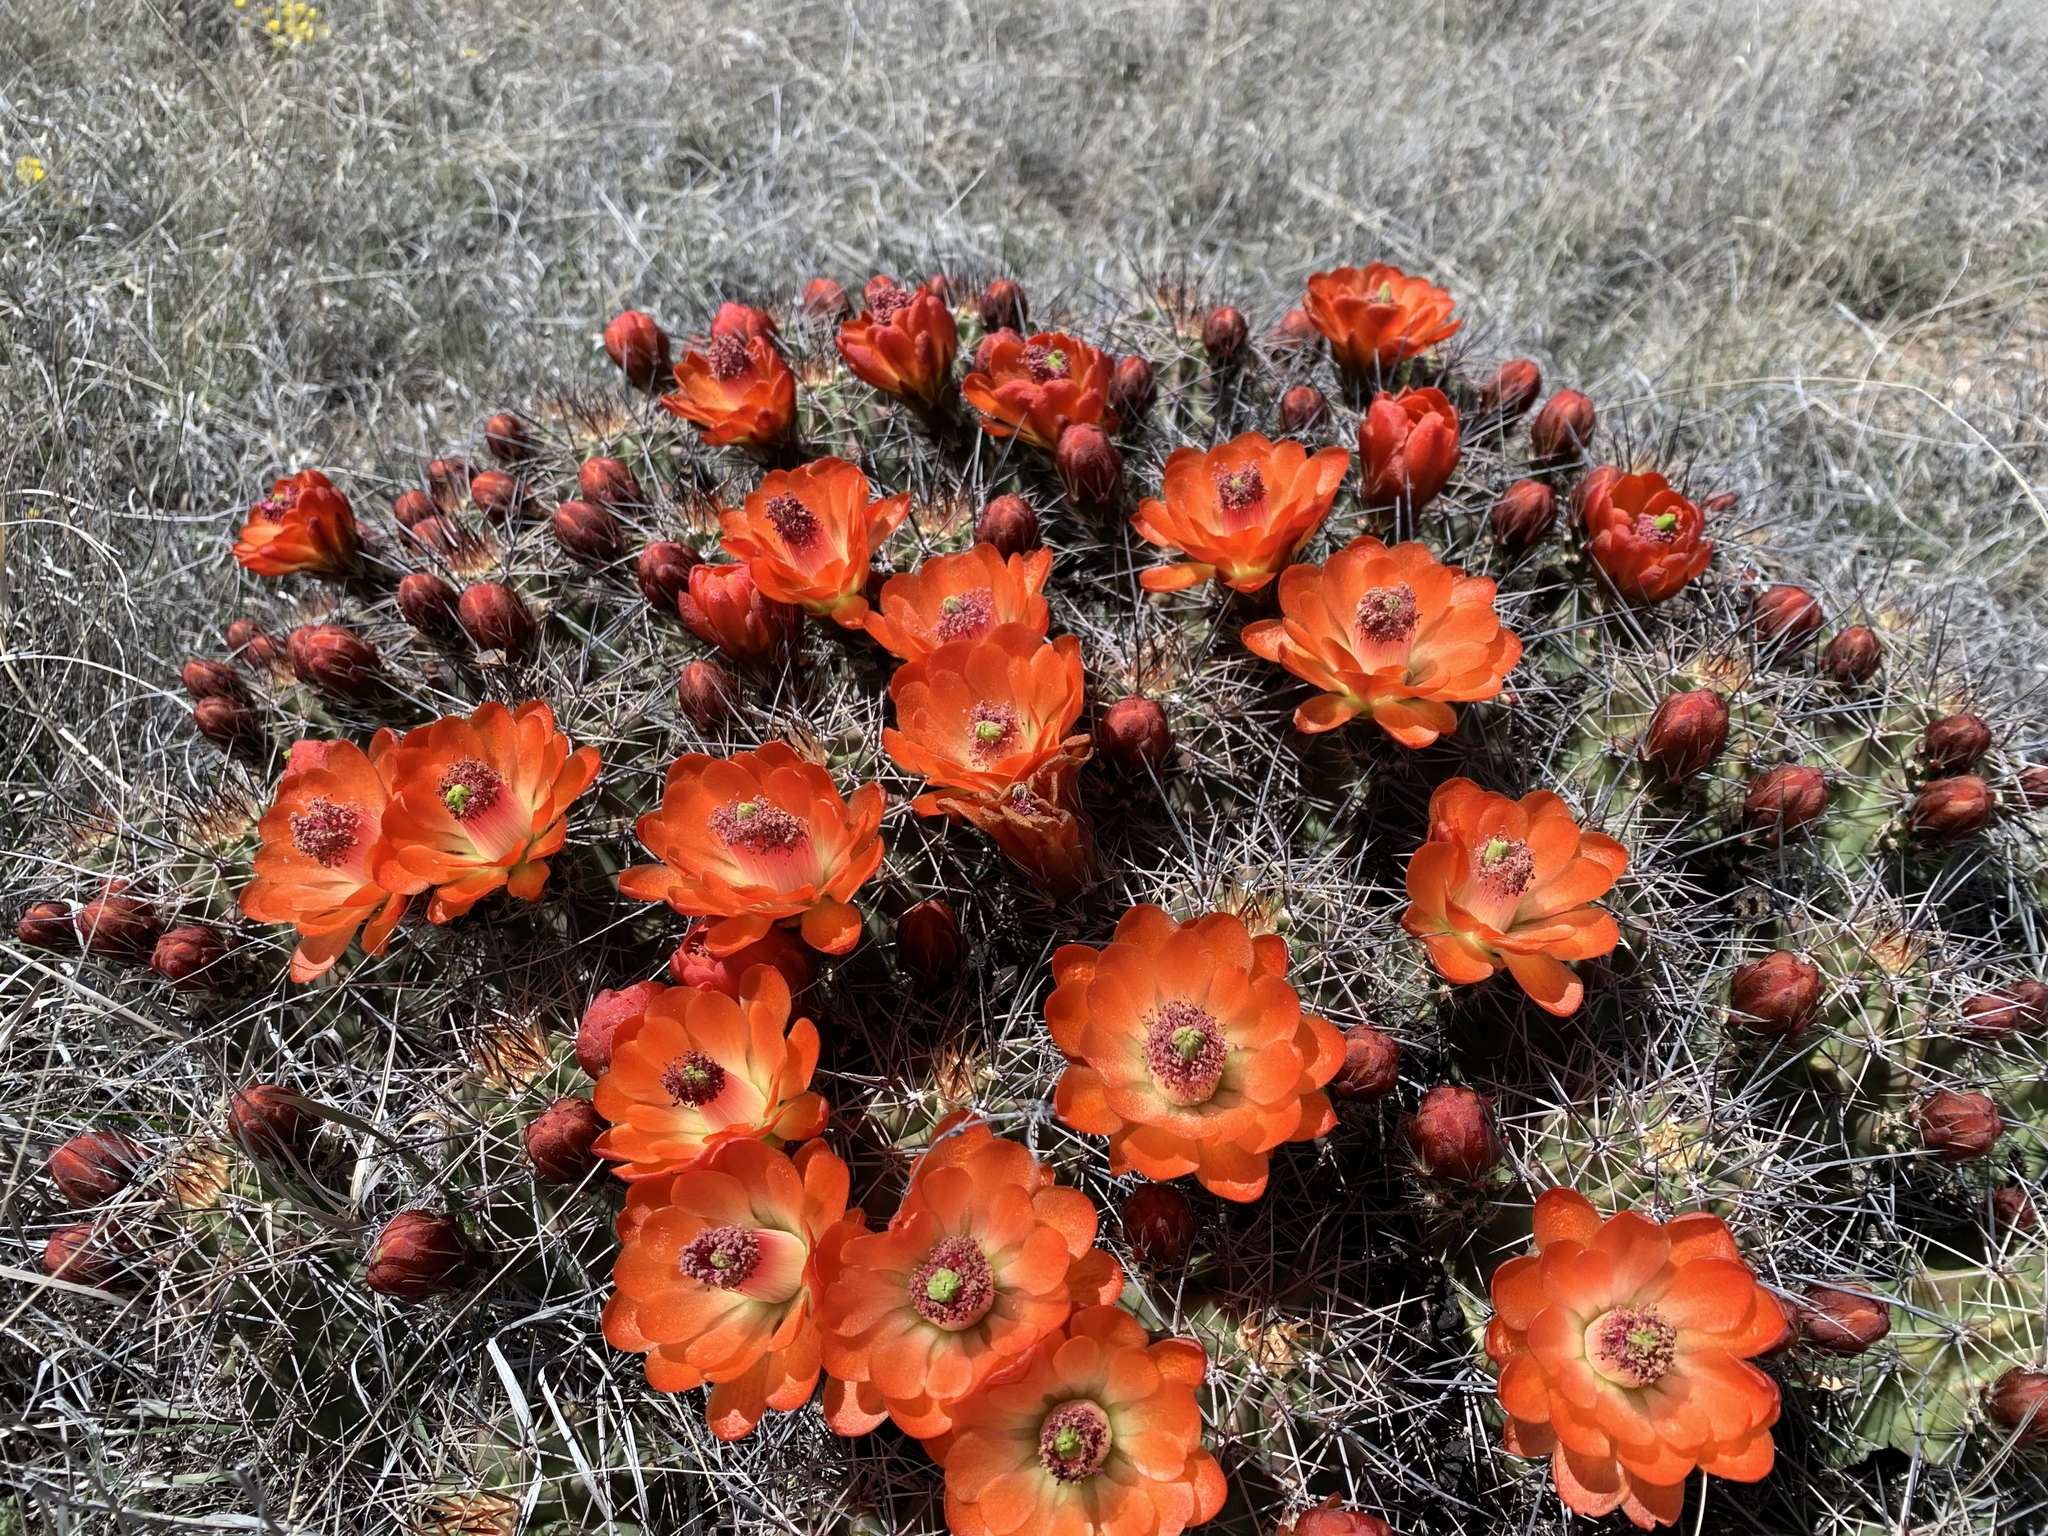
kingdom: Plantae
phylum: Tracheophyta
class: Magnoliopsida
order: Caryophyllales
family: Cactaceae
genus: Echinocereus
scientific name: Echinocereus coccineus
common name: Scarlet hedgehog cactus
